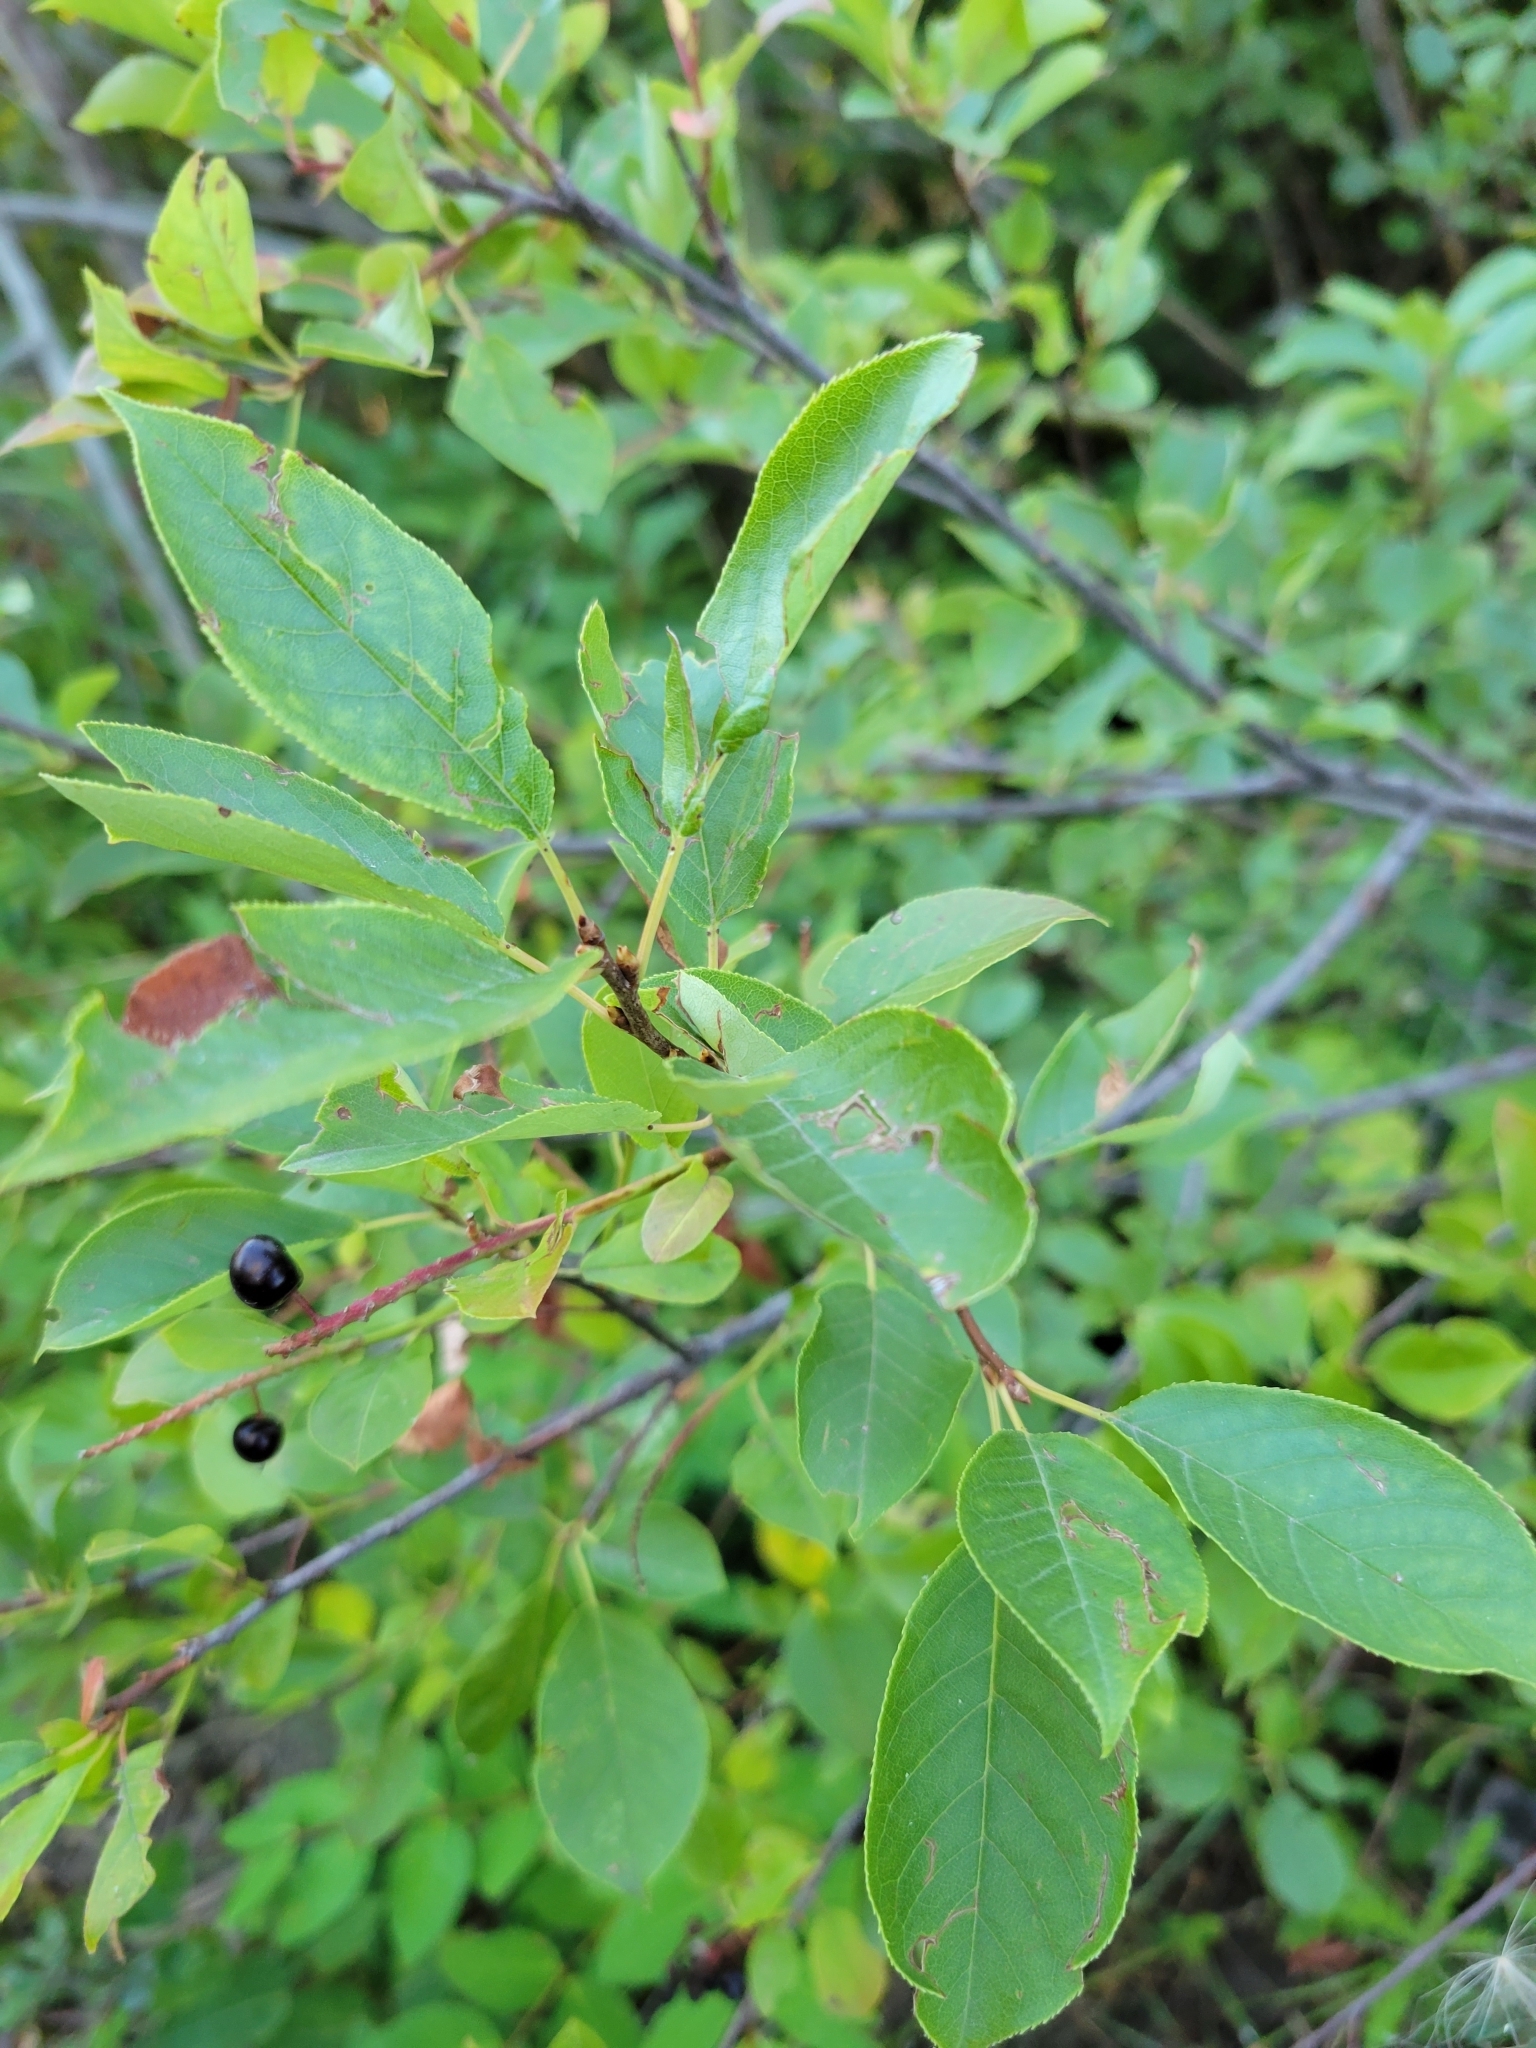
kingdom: Plantae
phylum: Tracheophyta
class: Magnoliopsida
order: Rosales
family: Rosaceae
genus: Prunus
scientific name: Prunus virginiana
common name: Chokecherry
